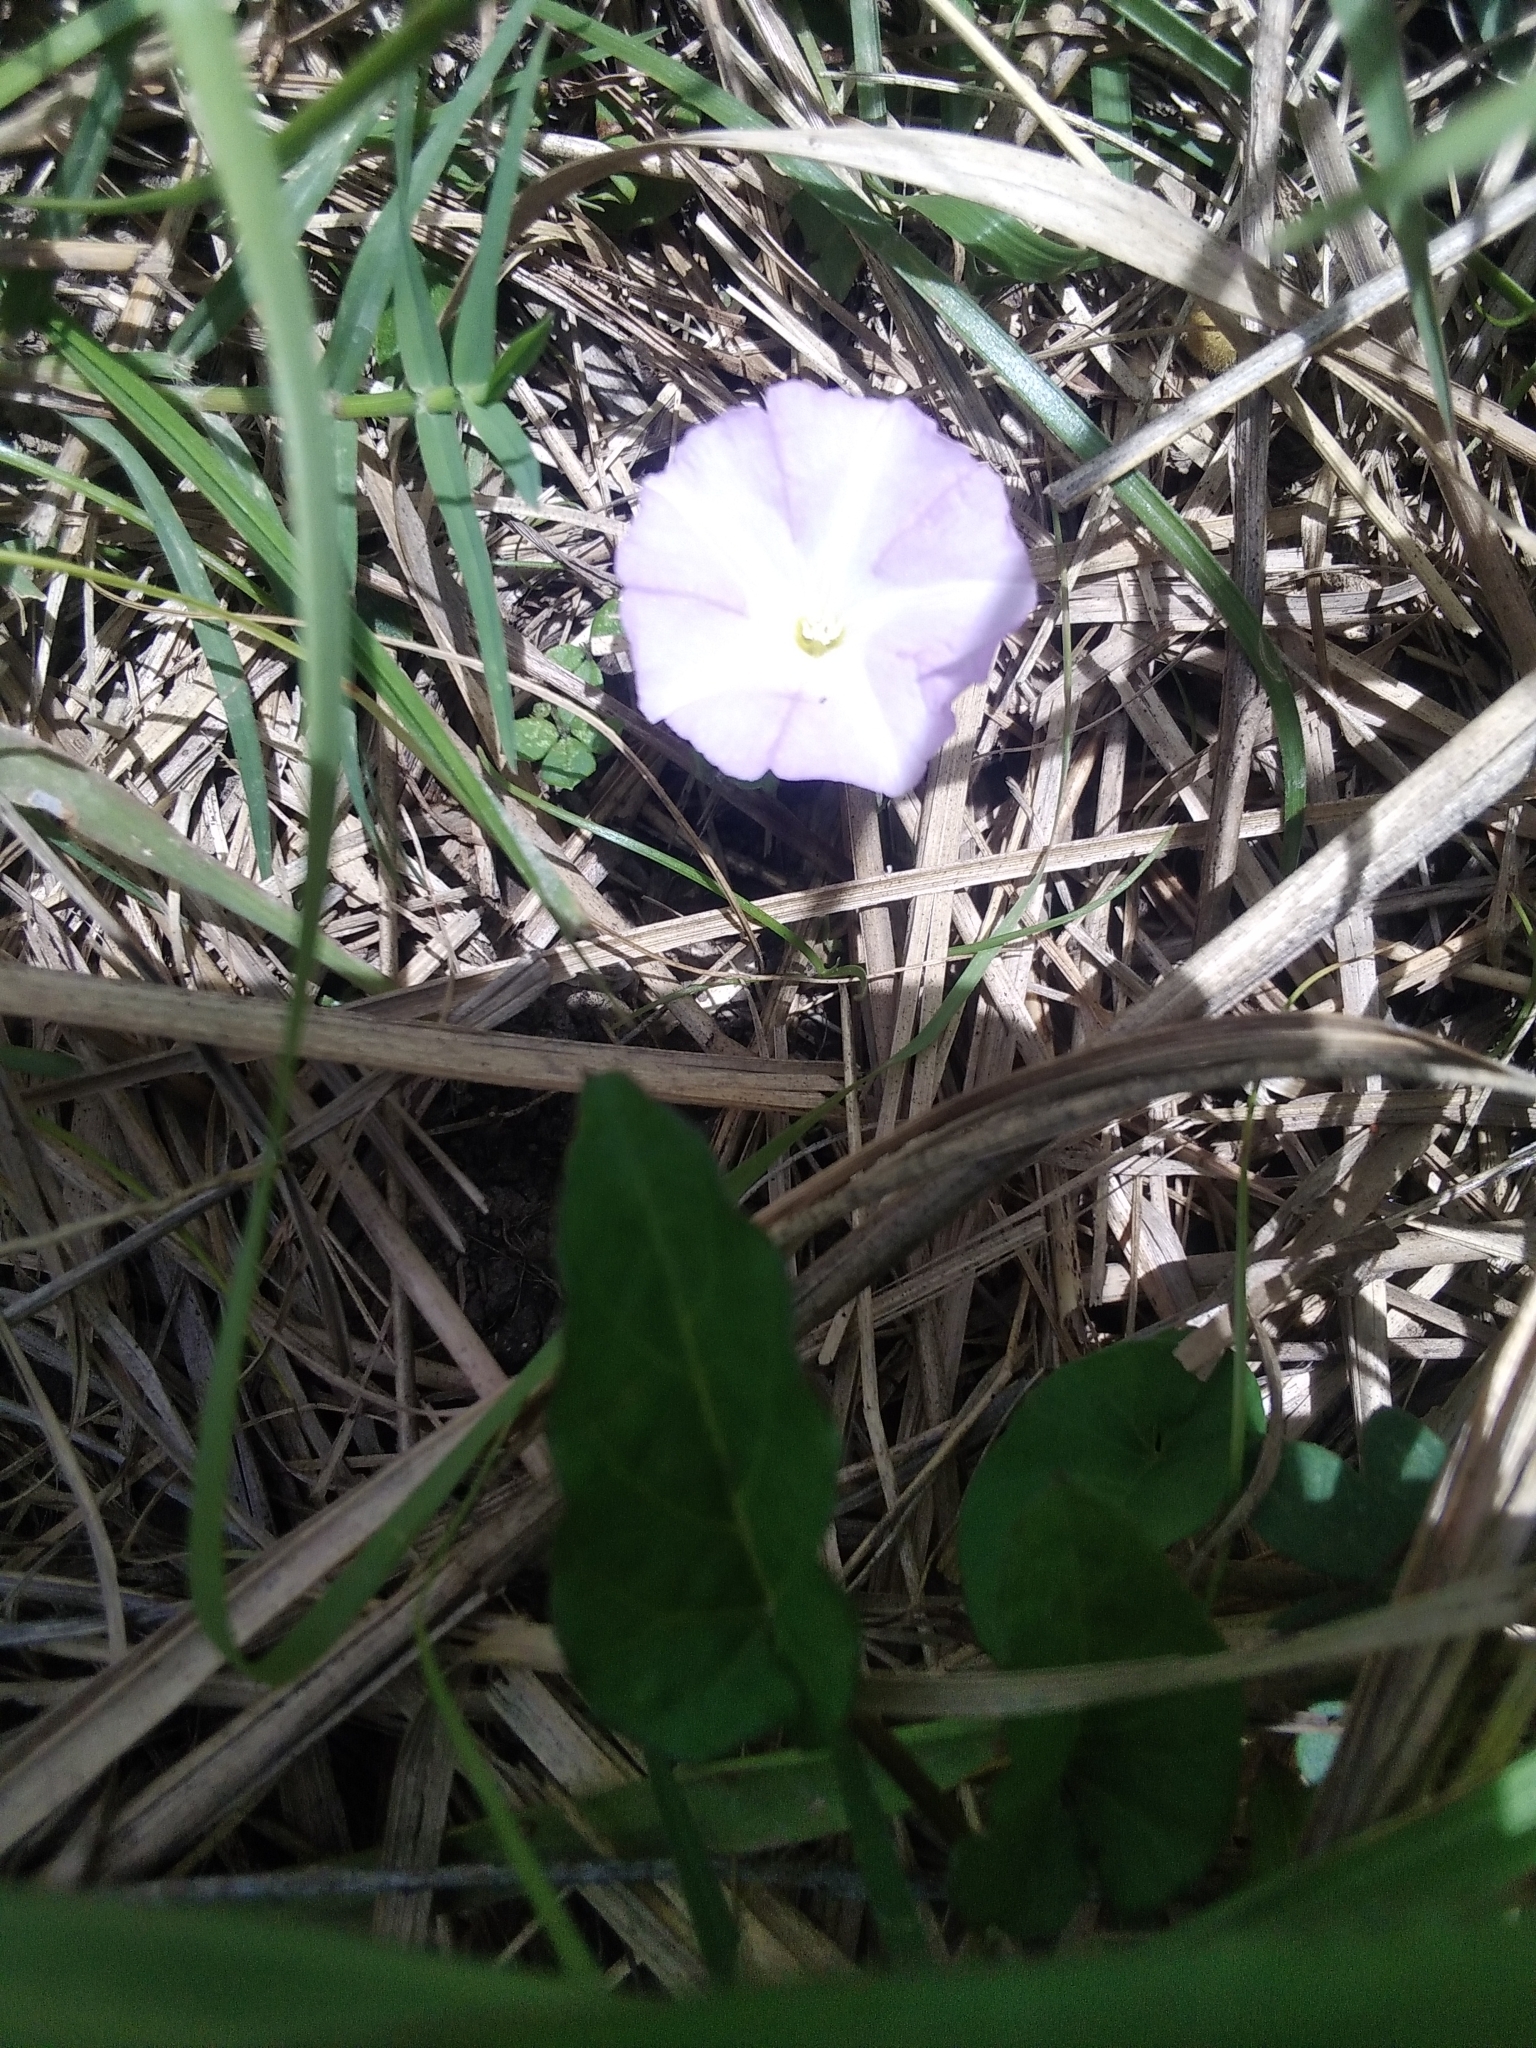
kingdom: Plantae
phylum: Tracheophyta
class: Magnoliopsida
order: Solanales
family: Convolvulaceae
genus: Polymeria
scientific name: Polymeria calycina
